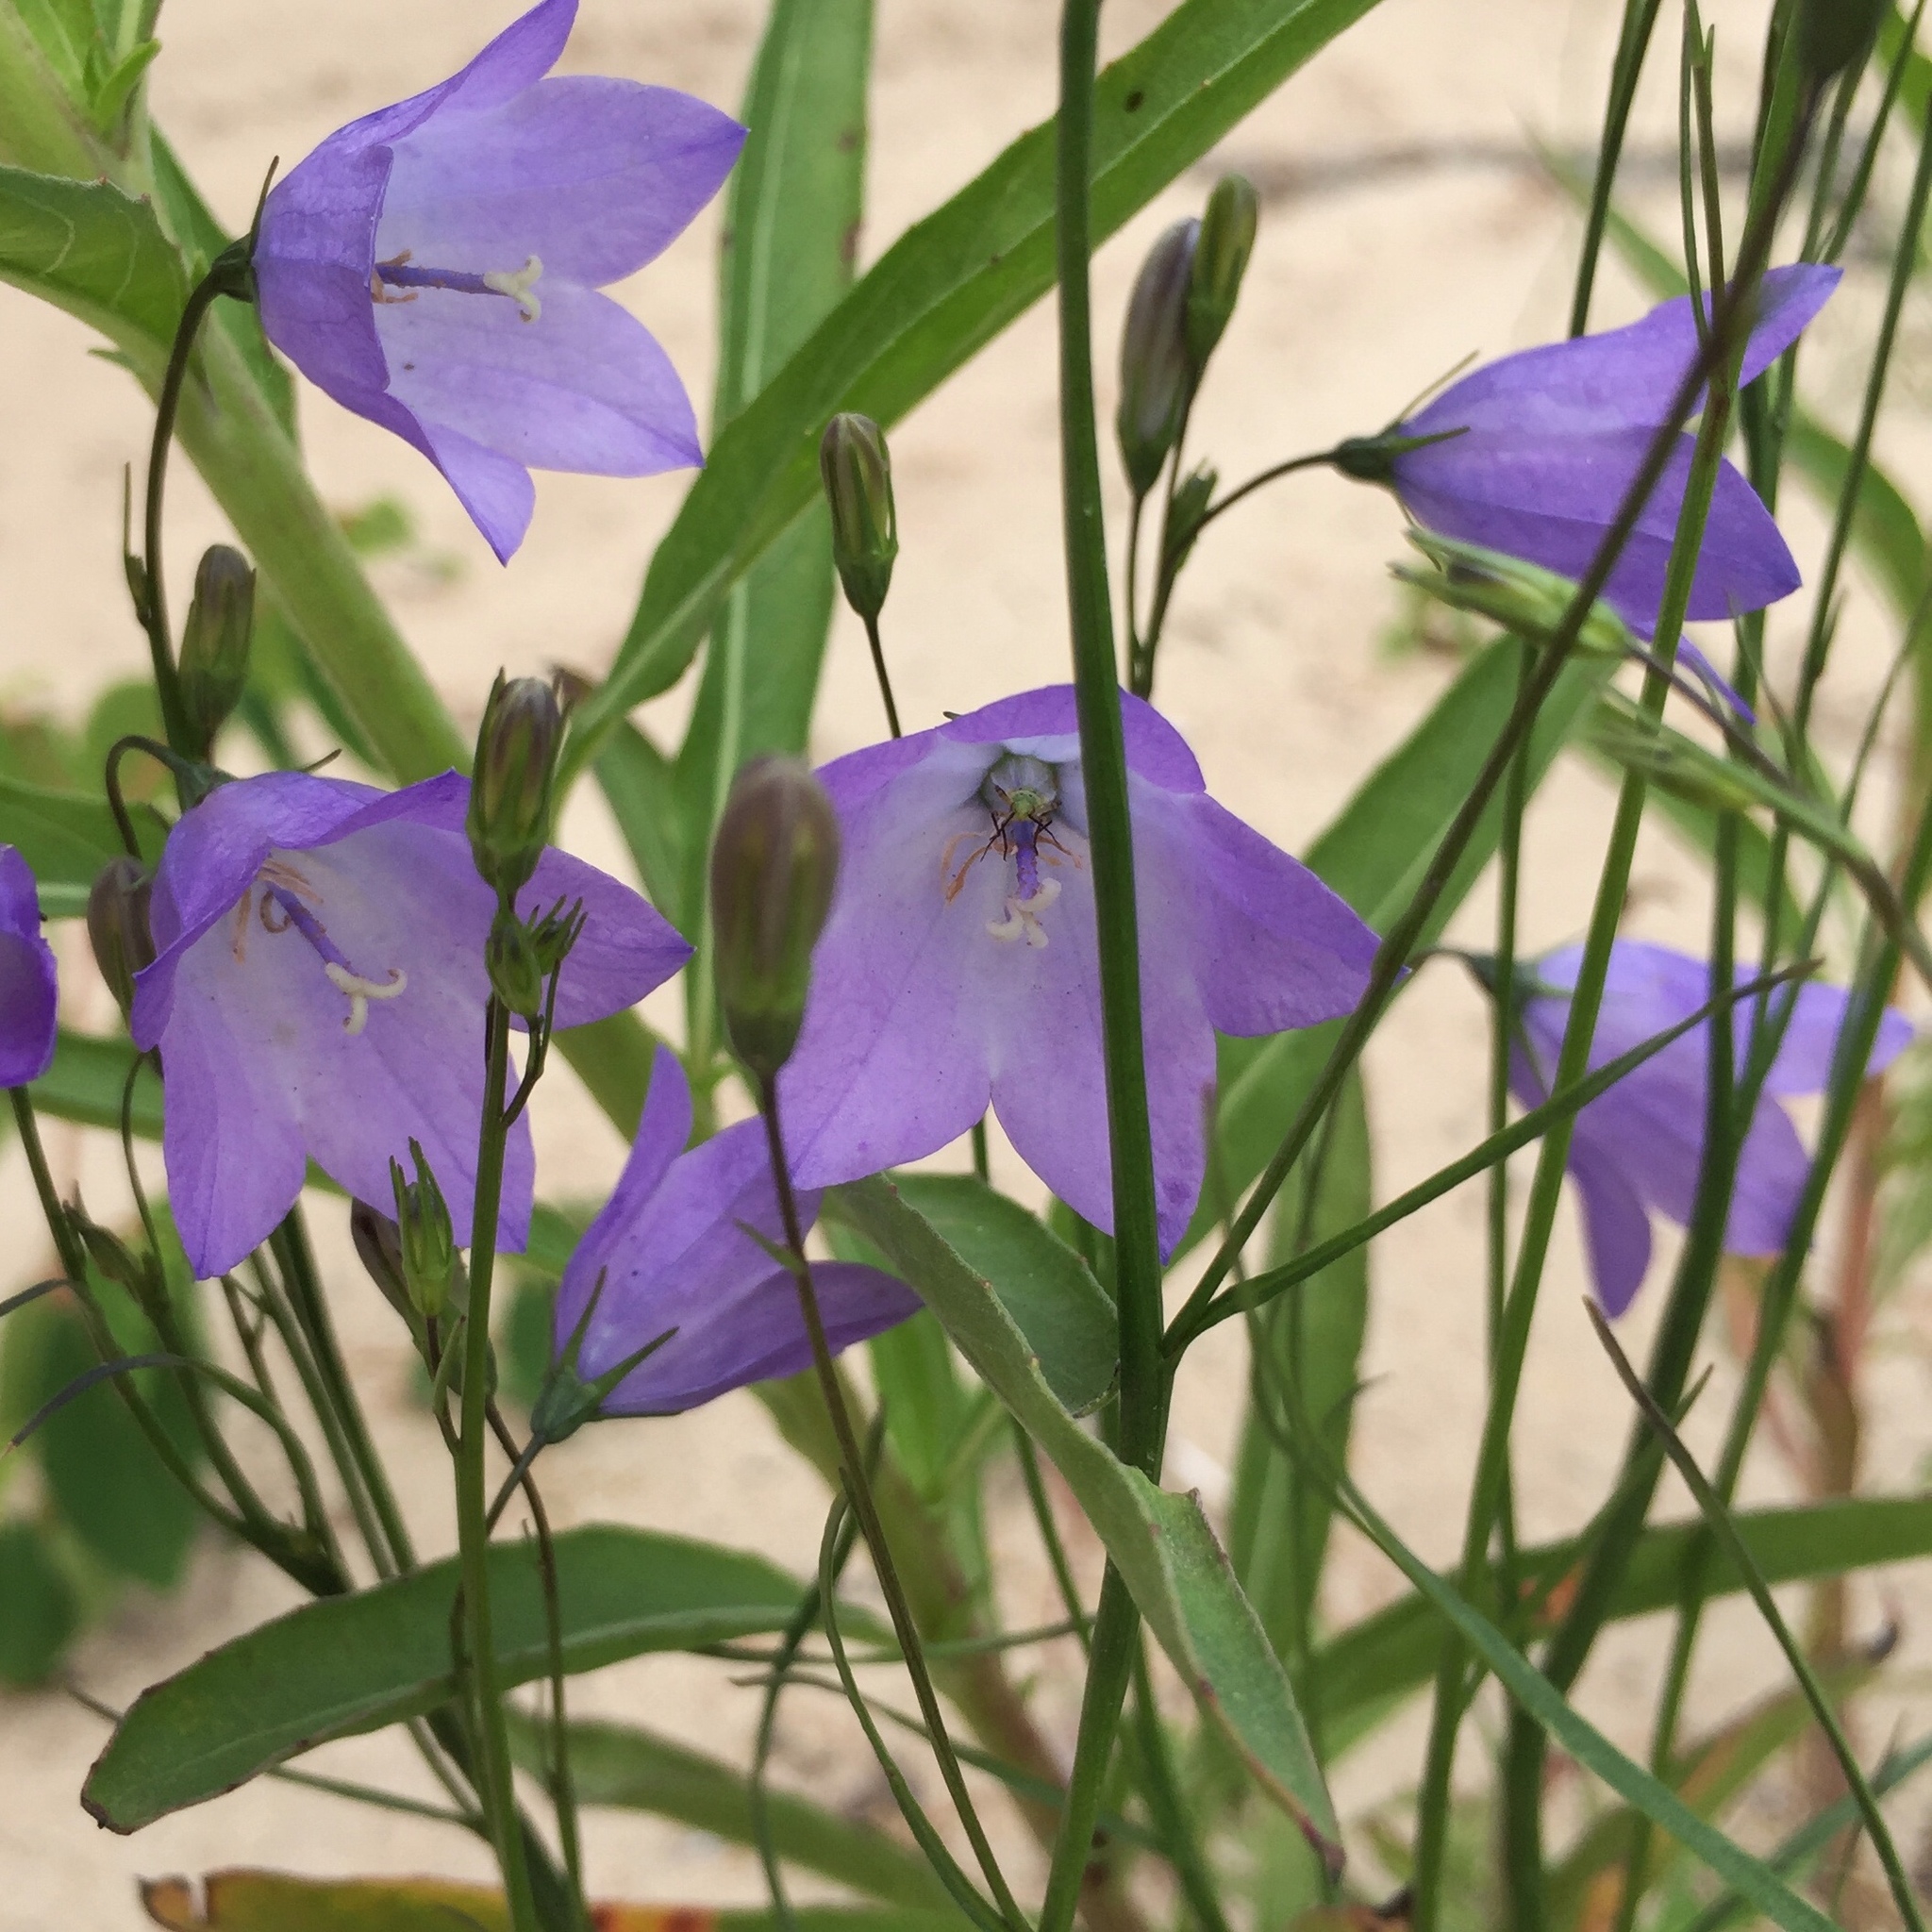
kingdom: Plantae
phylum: Tracheophyta
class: Magnoliopsida
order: Asterales
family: Campanulaceae
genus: Campanula
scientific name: Campanula petiolata
